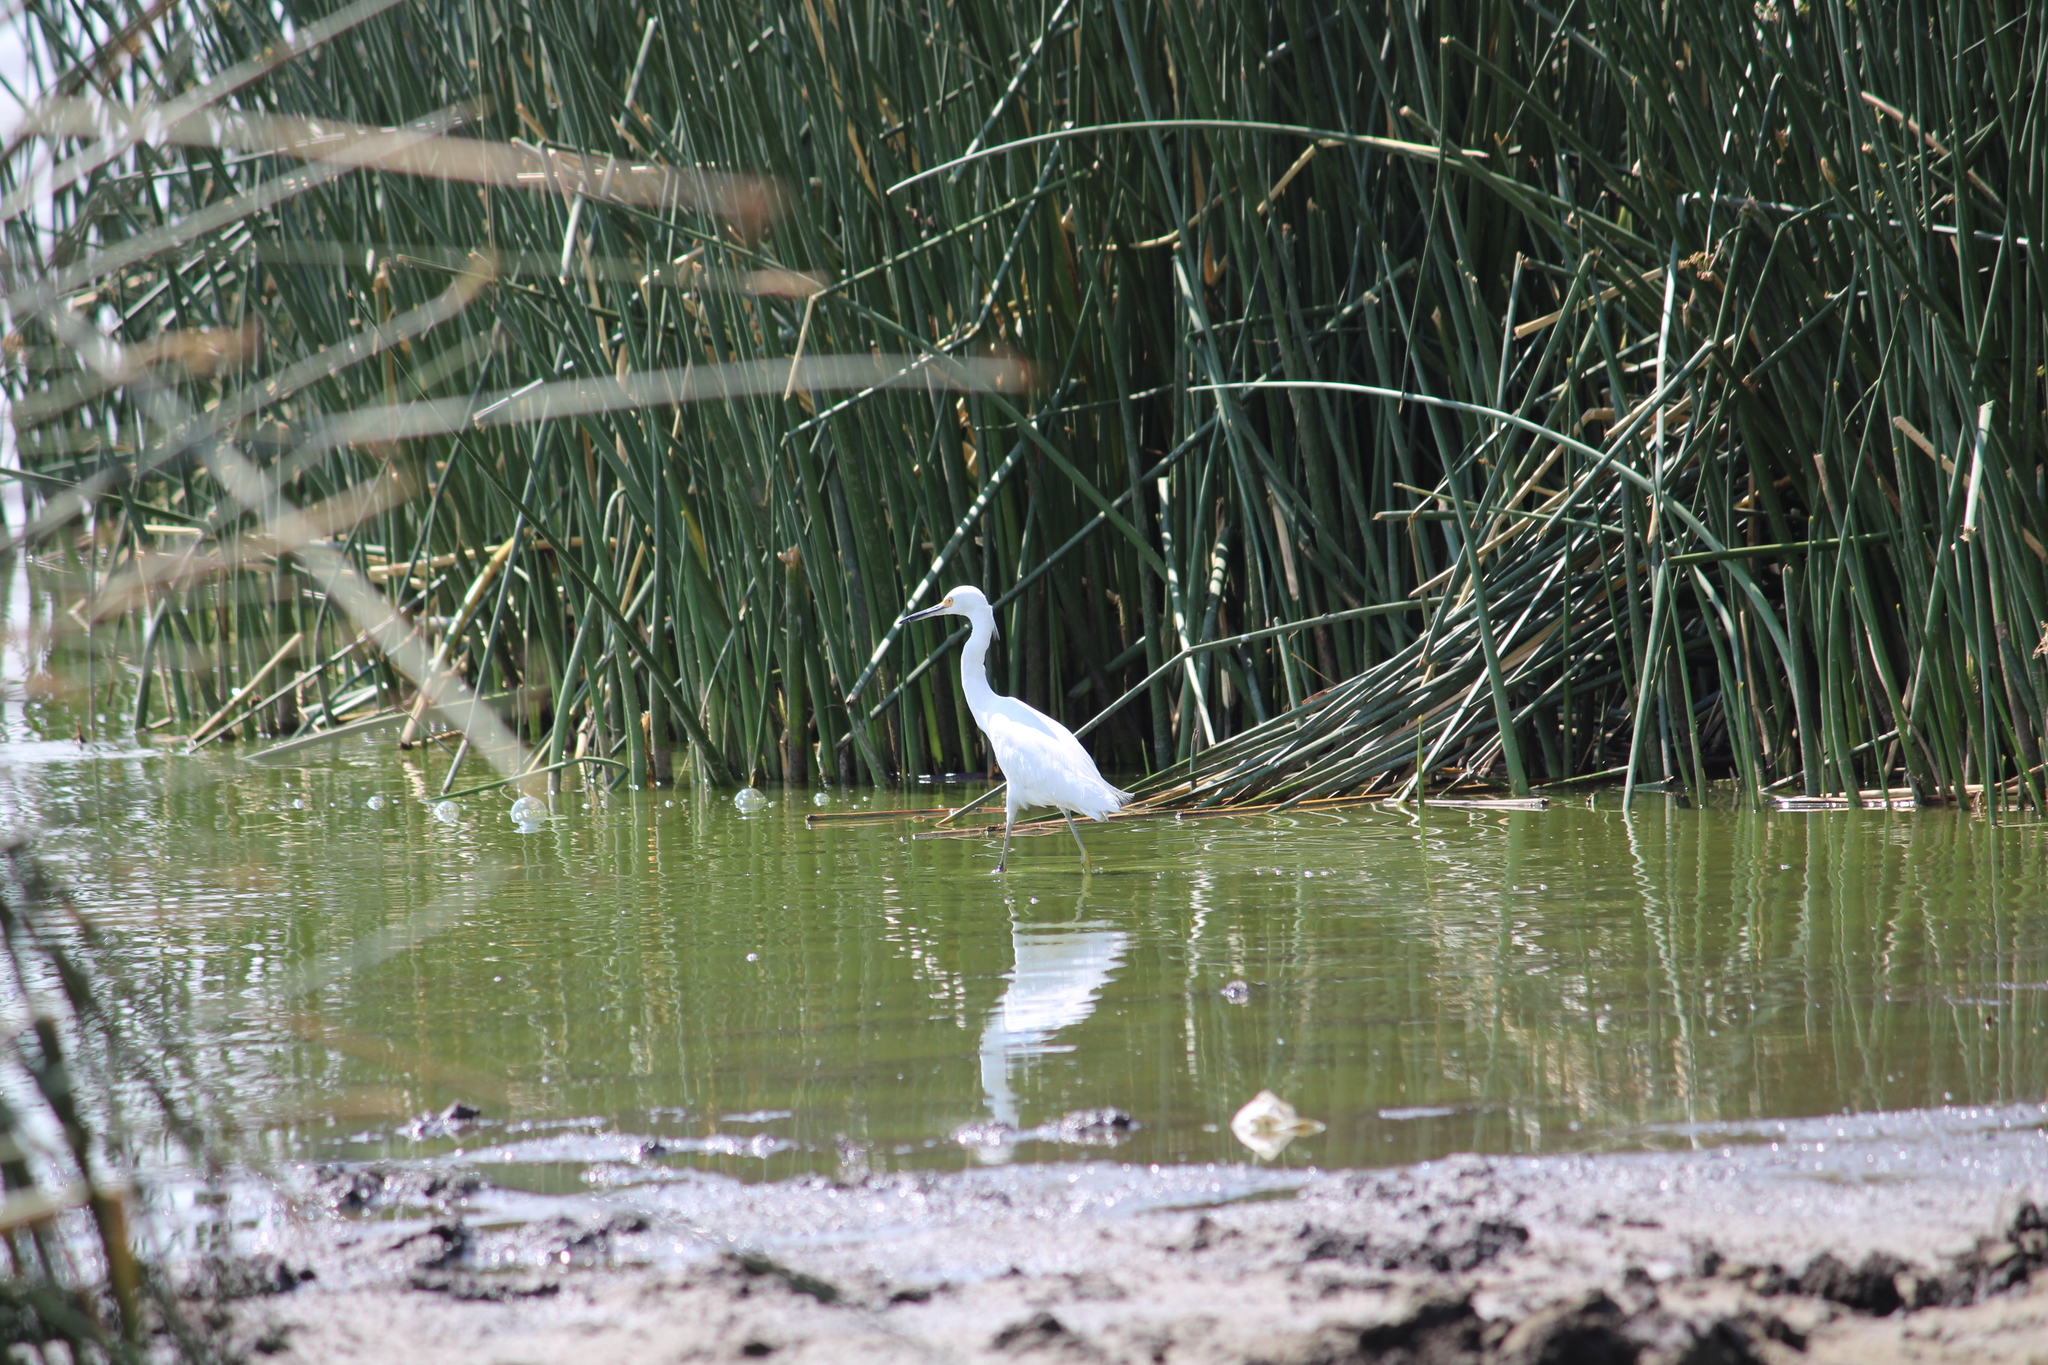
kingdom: Animalia
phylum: Chordata
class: Aves
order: Pelecaniformes
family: Ardeidae
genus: Egretta
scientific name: Egretta thula
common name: Snowy egret
